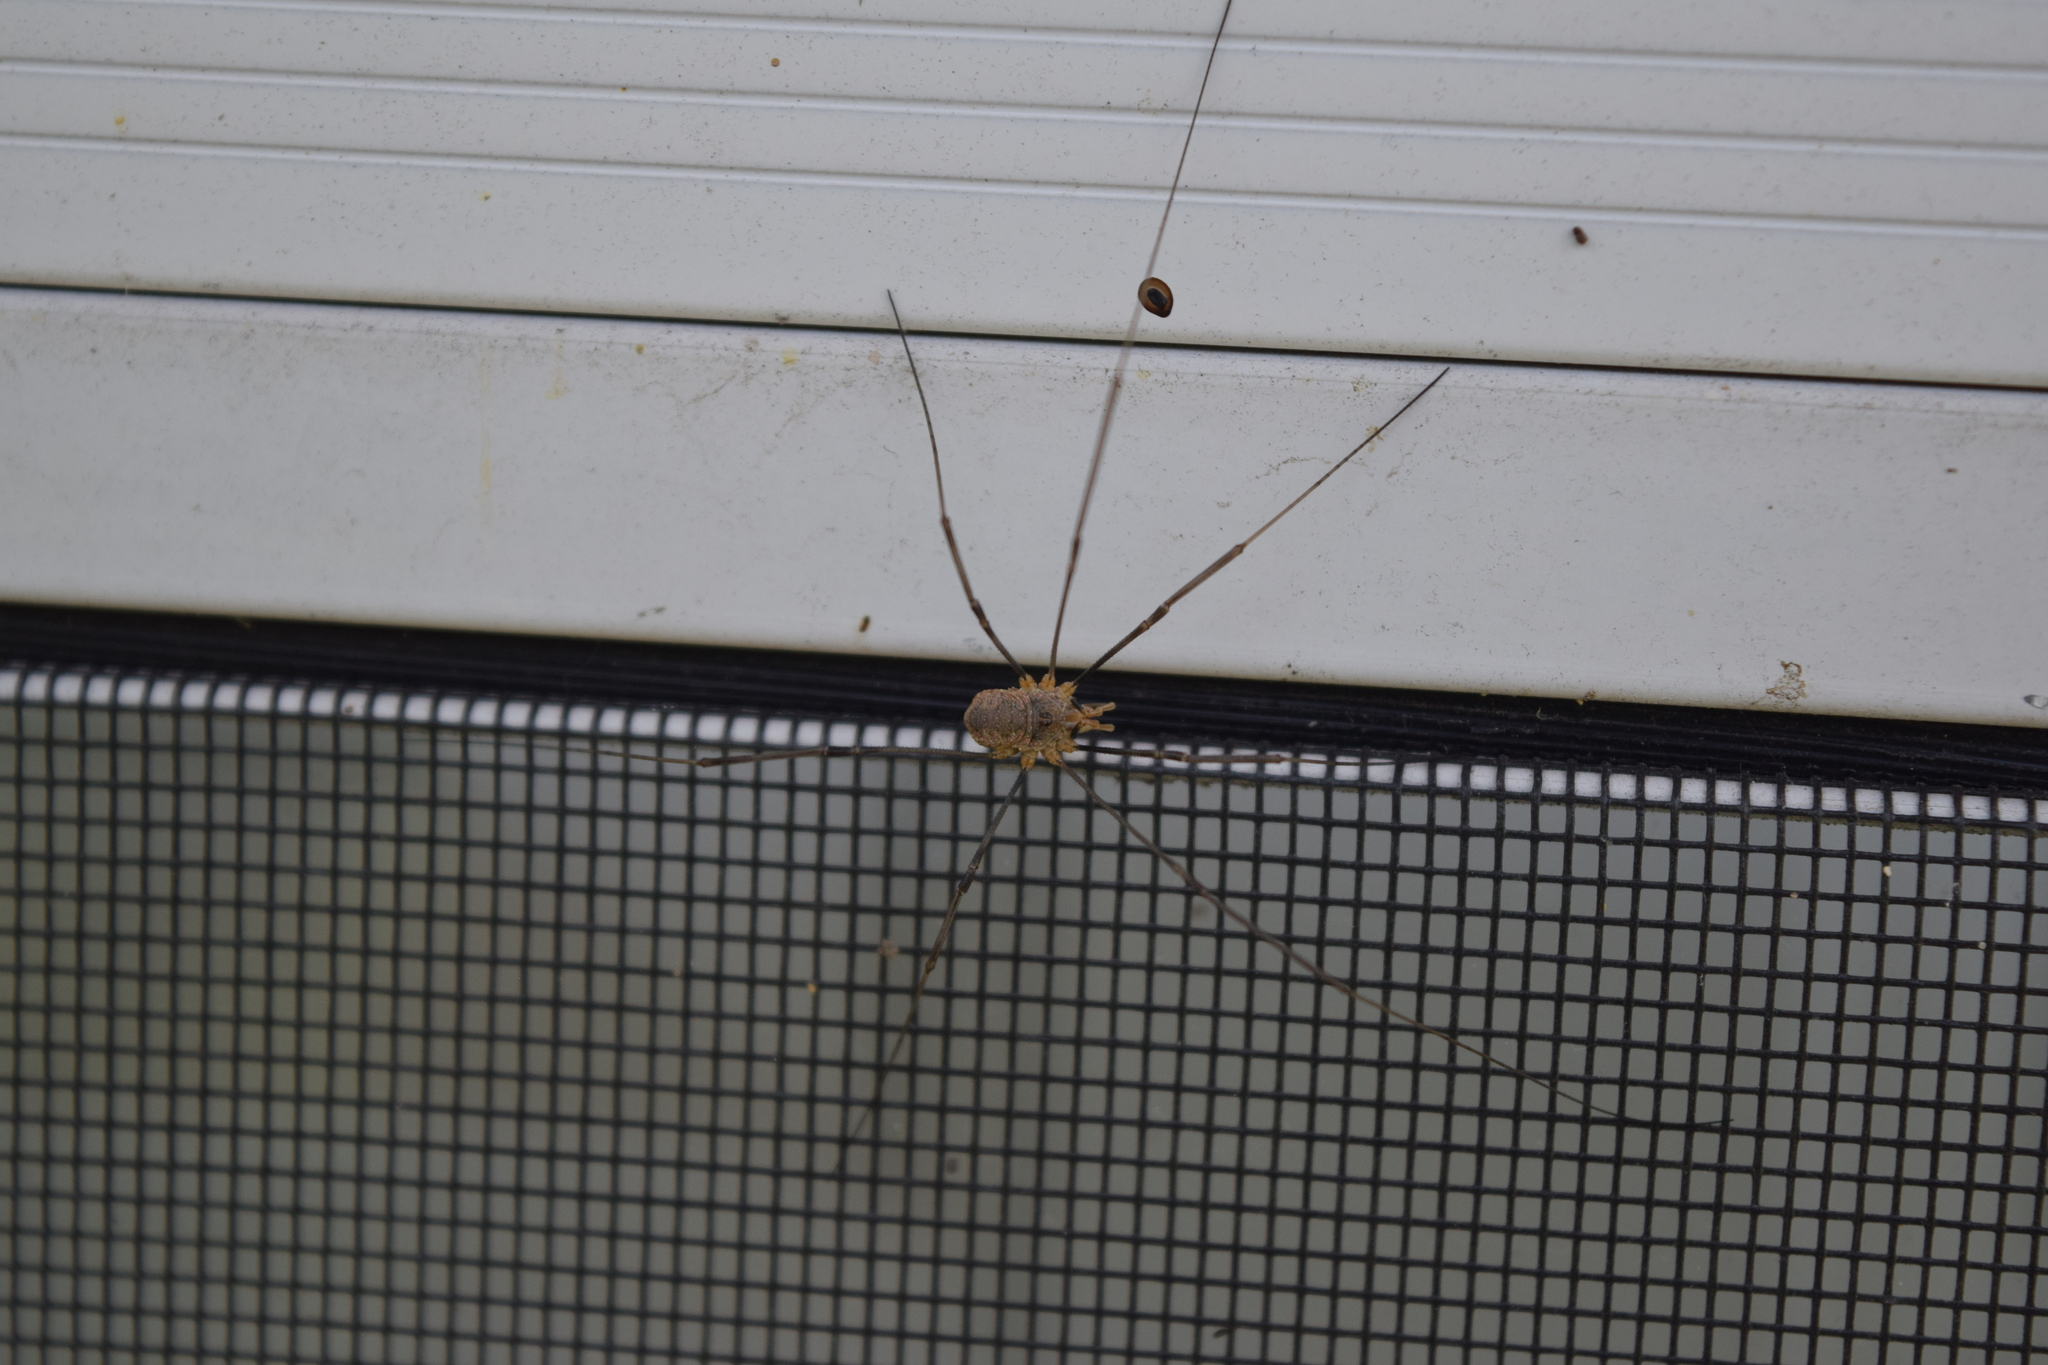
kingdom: Animalia
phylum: Arthropoda
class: Arachnida
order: Opiliones
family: Phalangiidae
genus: Phalangium
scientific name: Phalangium opilio
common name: Daddy longleg
